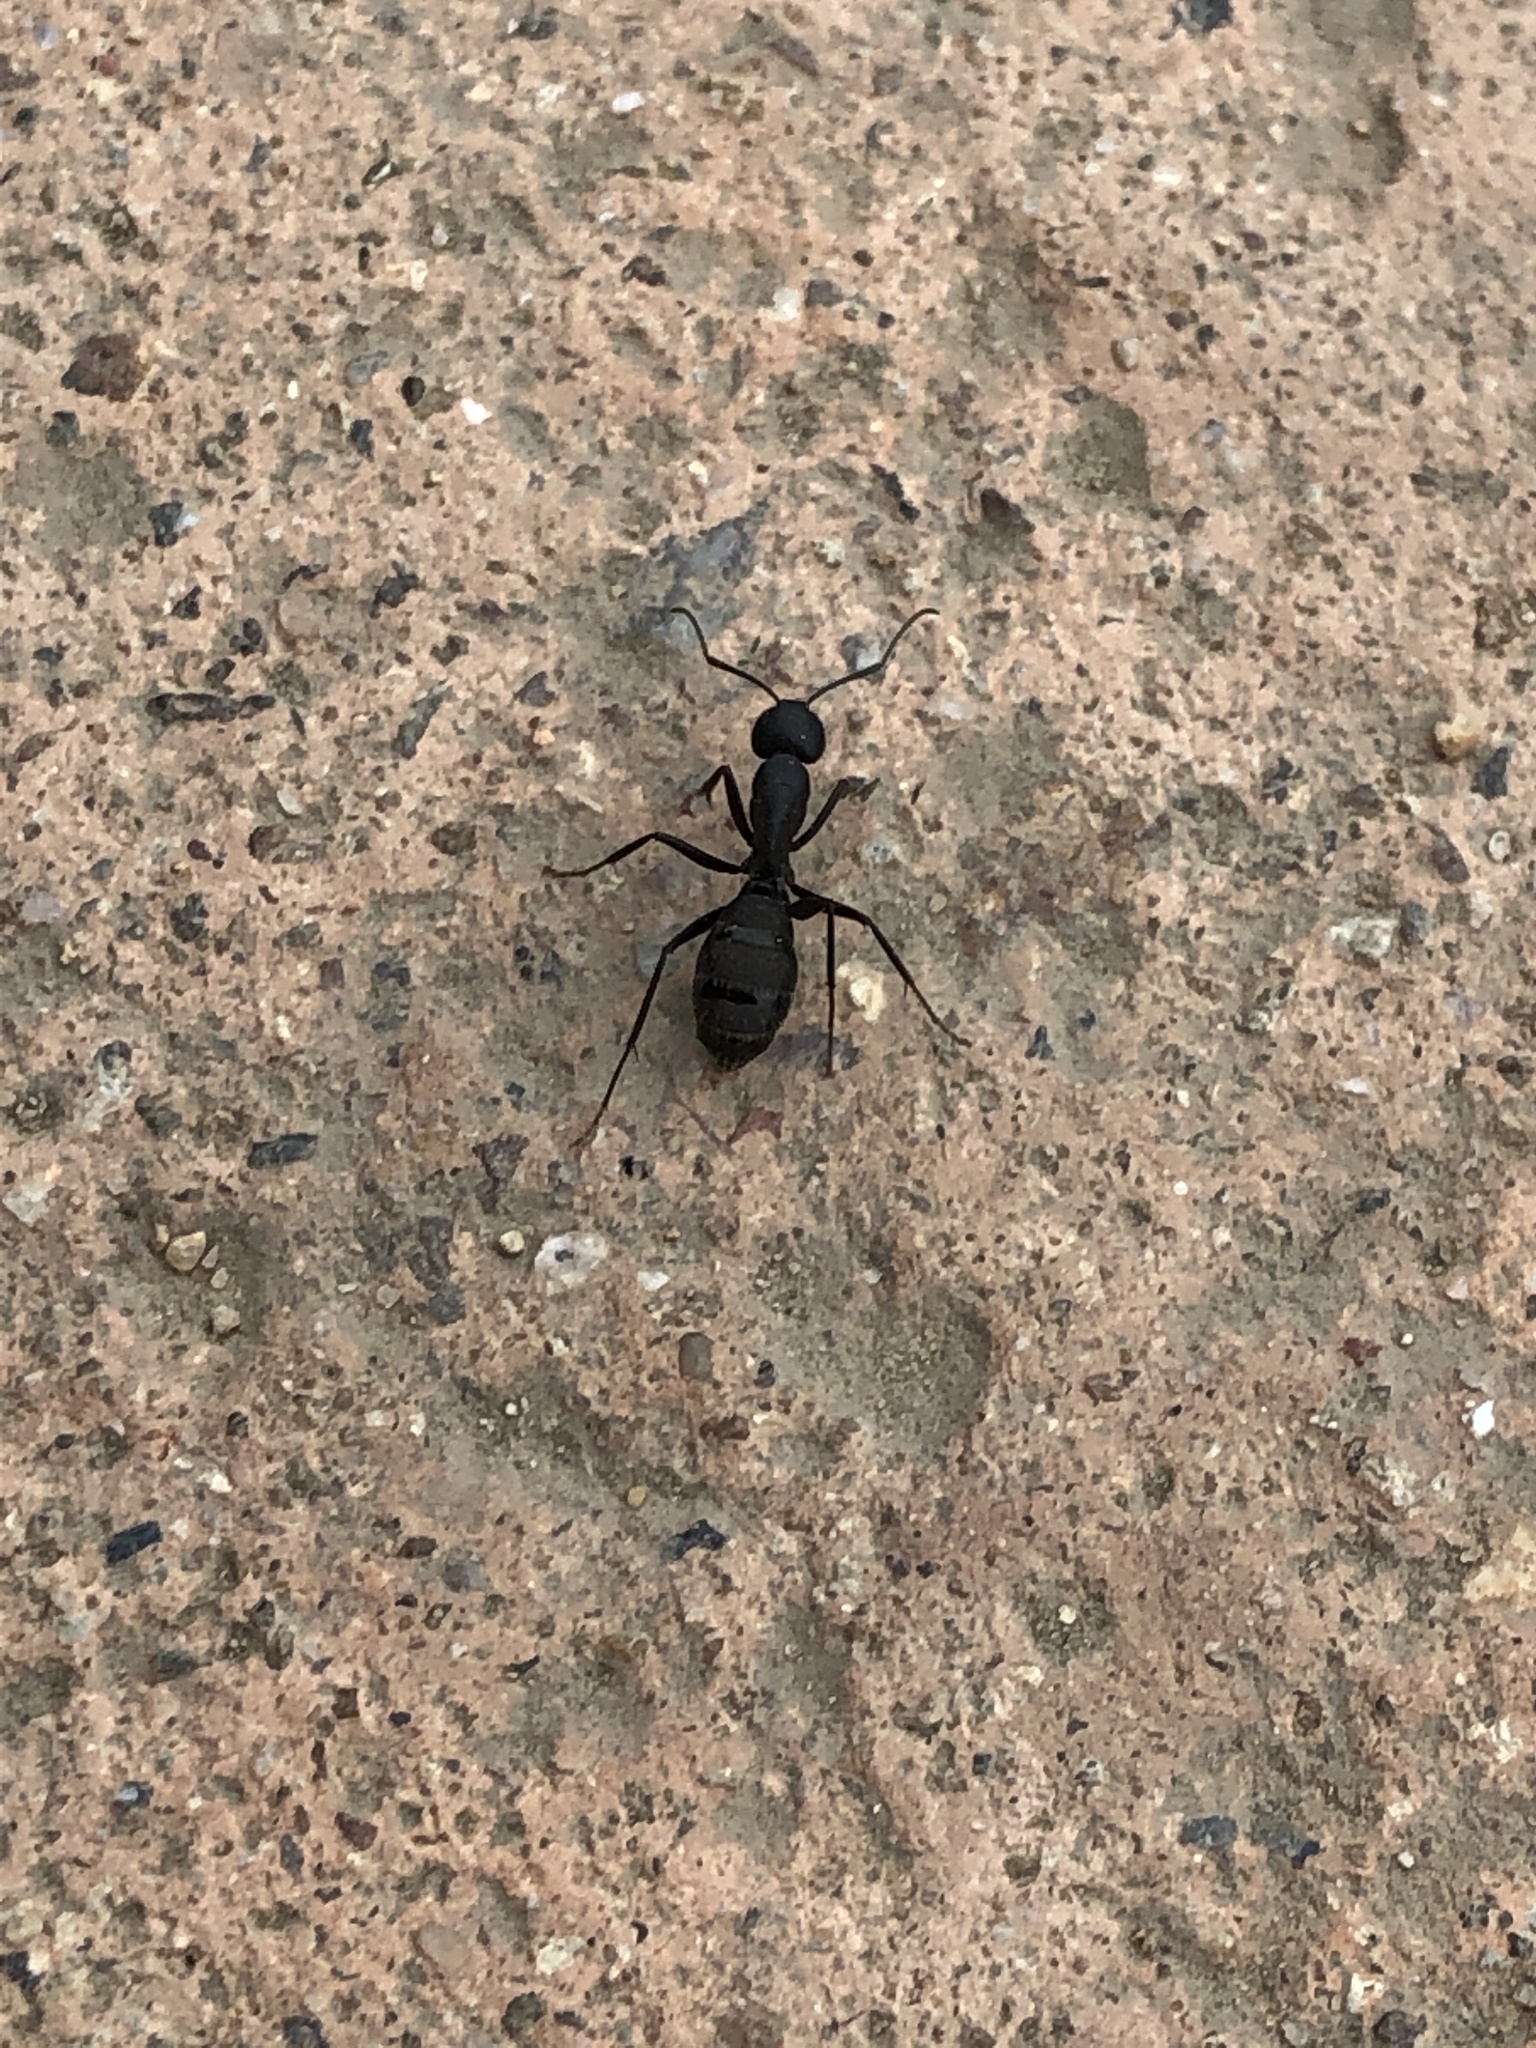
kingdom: Animalia
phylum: Arthropoda
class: Insecta
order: Hymenoptera
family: Formicidae
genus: Camponotus
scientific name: Camponotus japonicus
